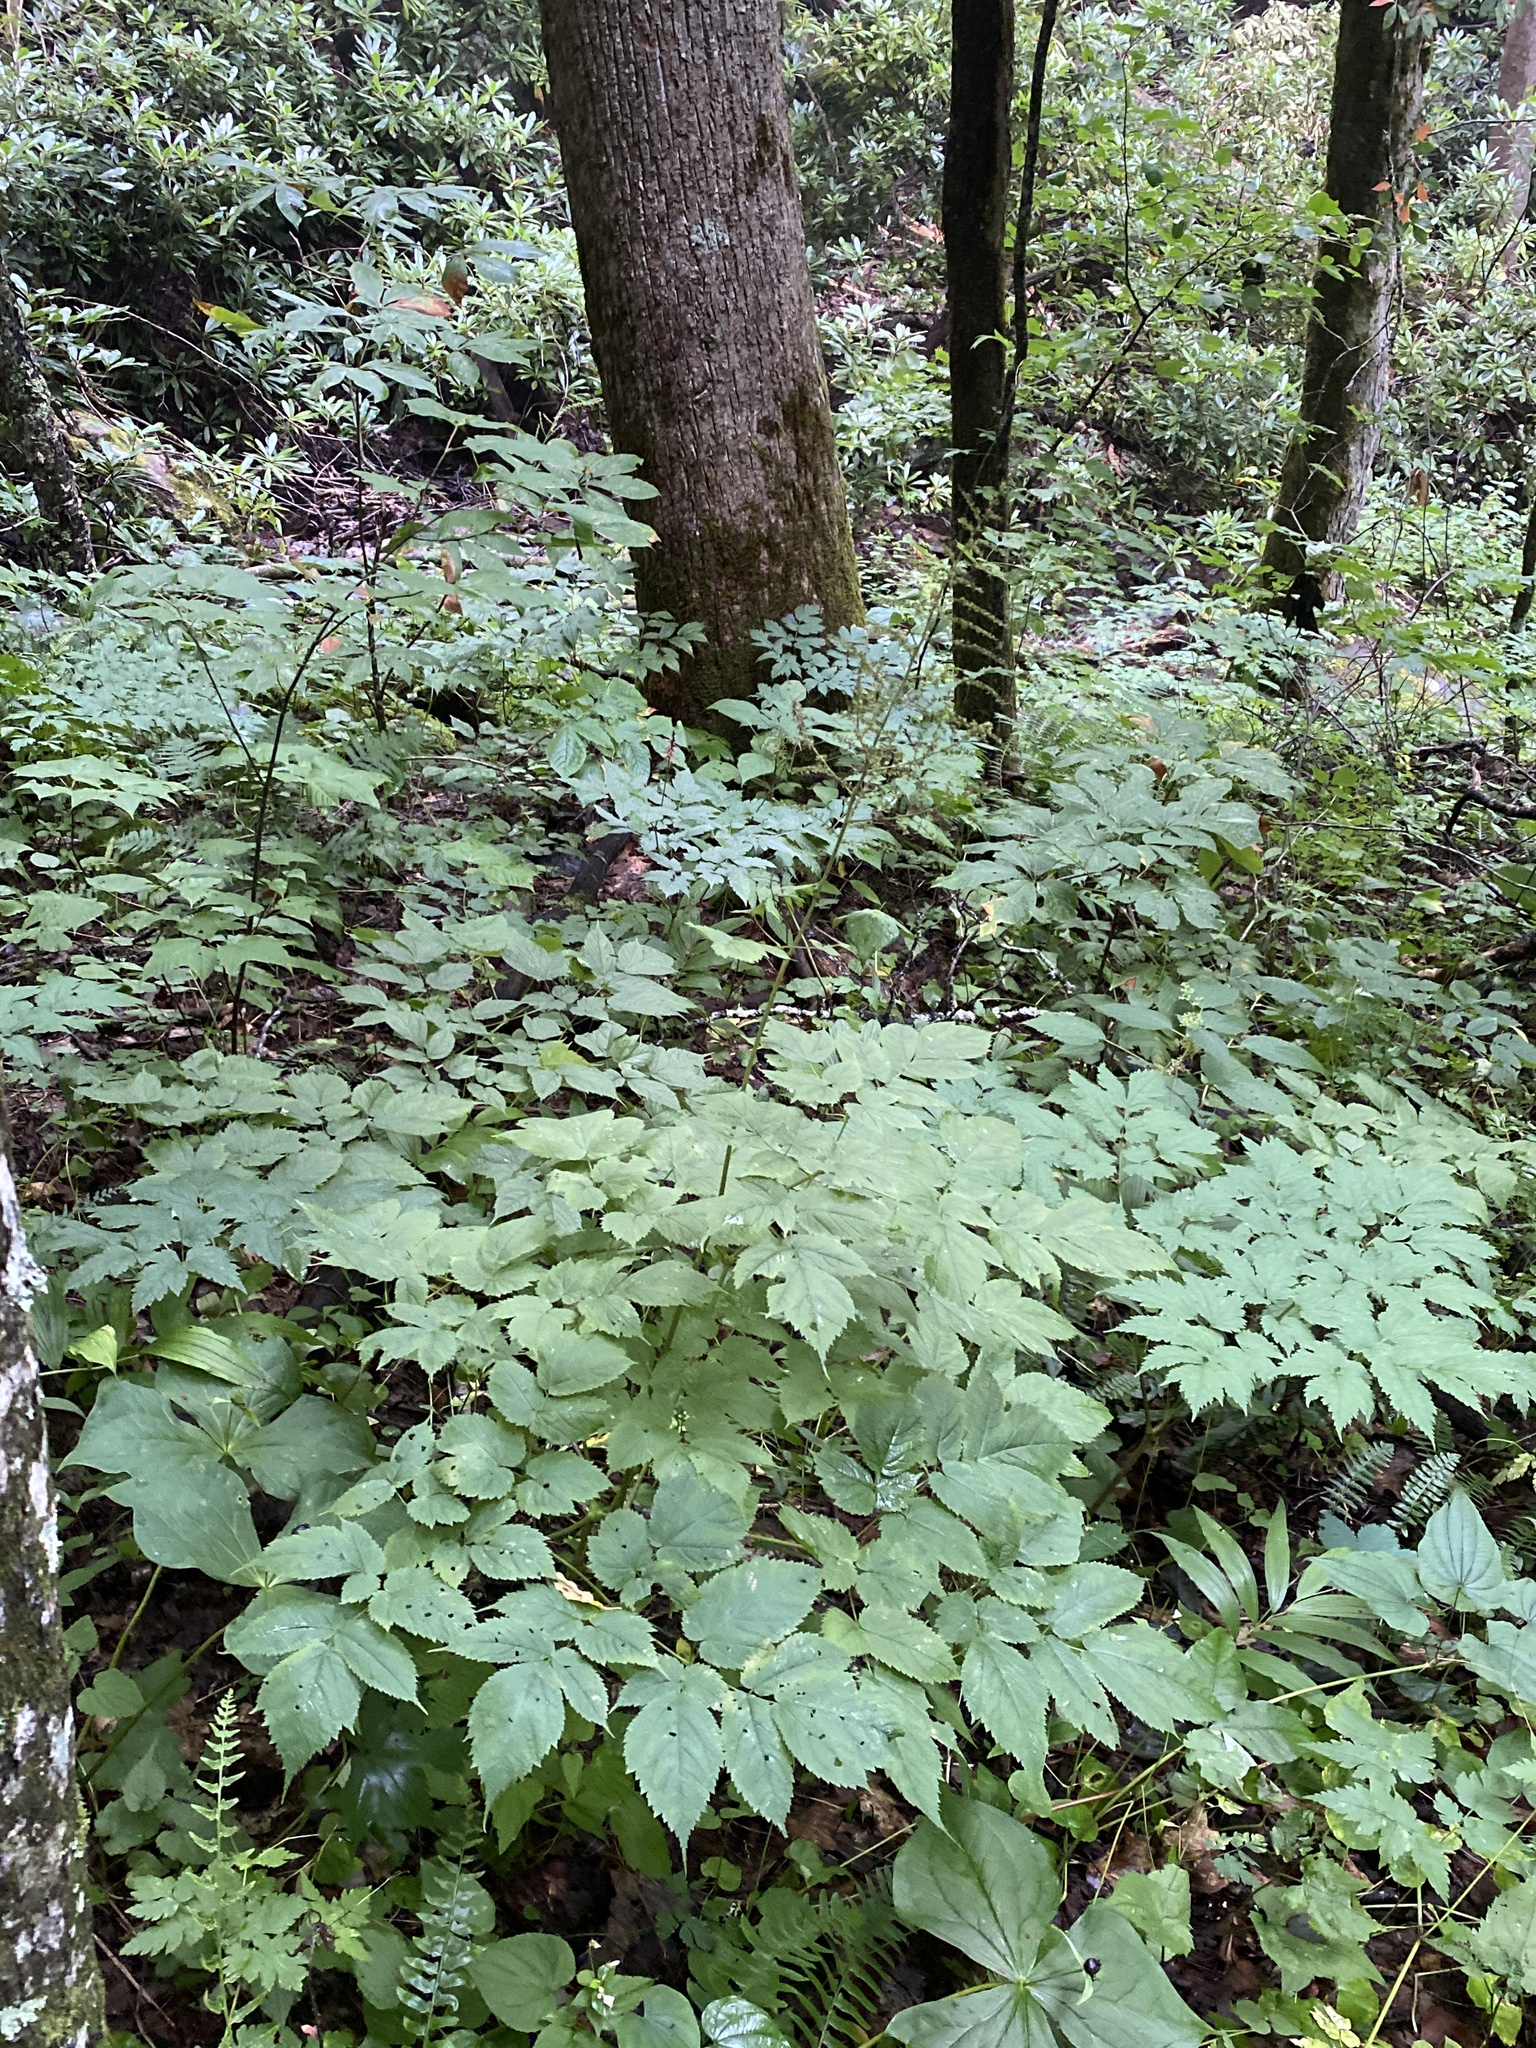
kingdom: Plantae
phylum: Tracheophyta
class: Magnoliopsida
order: Saxifragales
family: Saxifragaceae
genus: Astilbe
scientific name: Astilbe biternata
